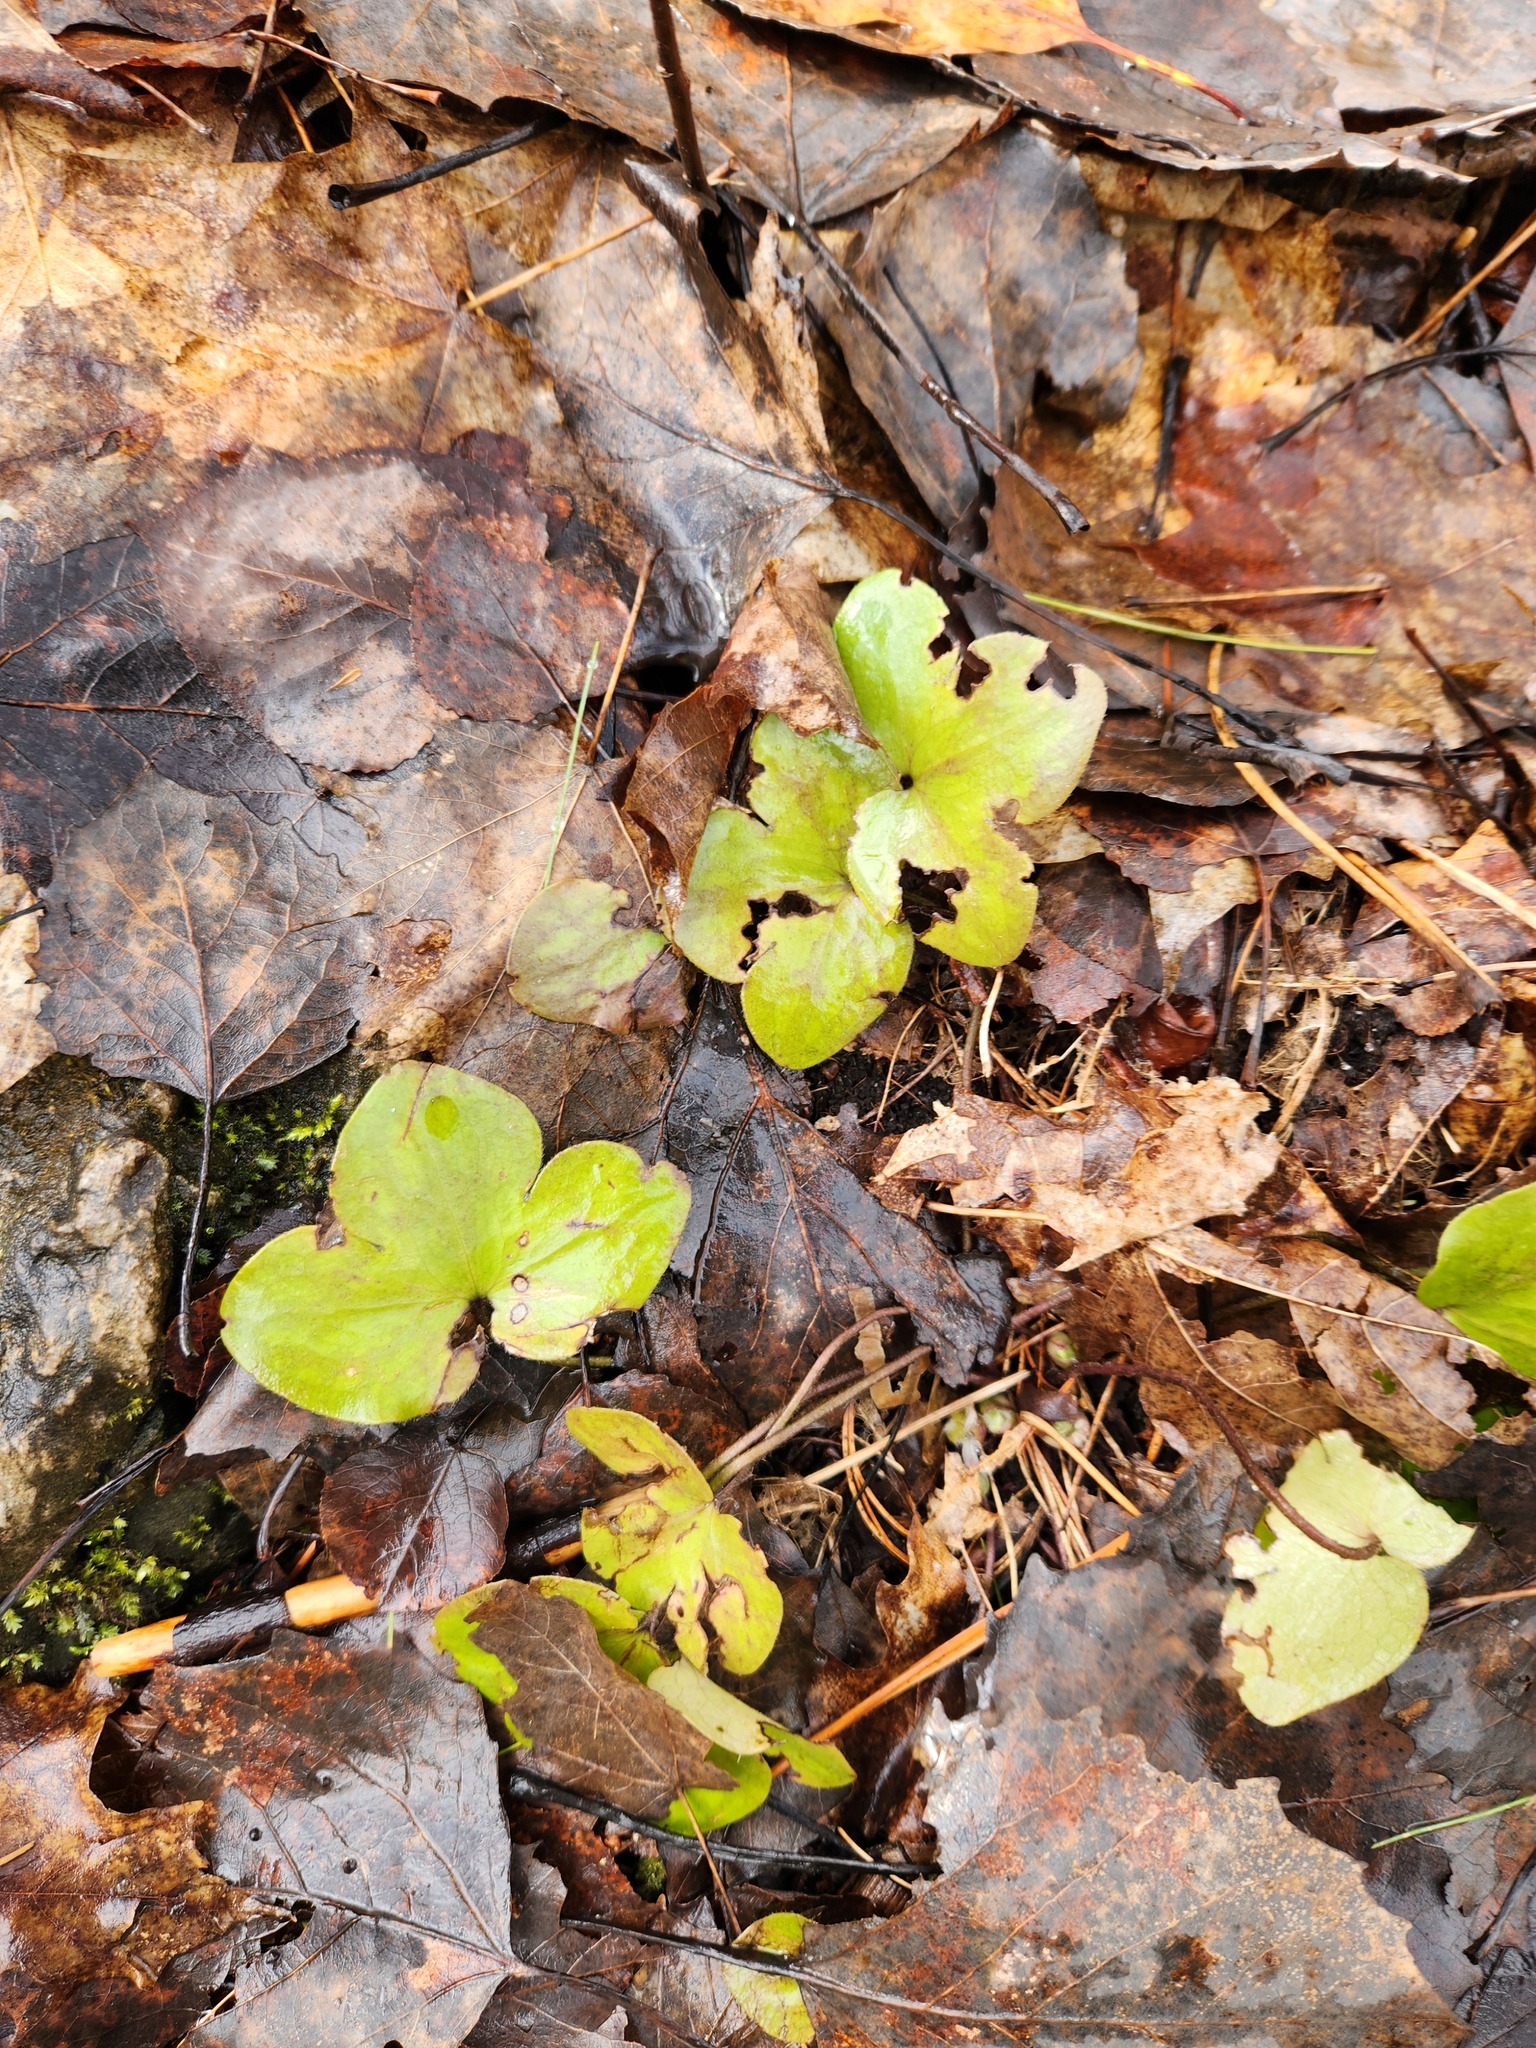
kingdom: Plantae
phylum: Tracheophyta
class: Magnoliopsida
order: Ranunculales
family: Ranunculaceae
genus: Hepatica
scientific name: Hepatica americana
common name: American hepatica
